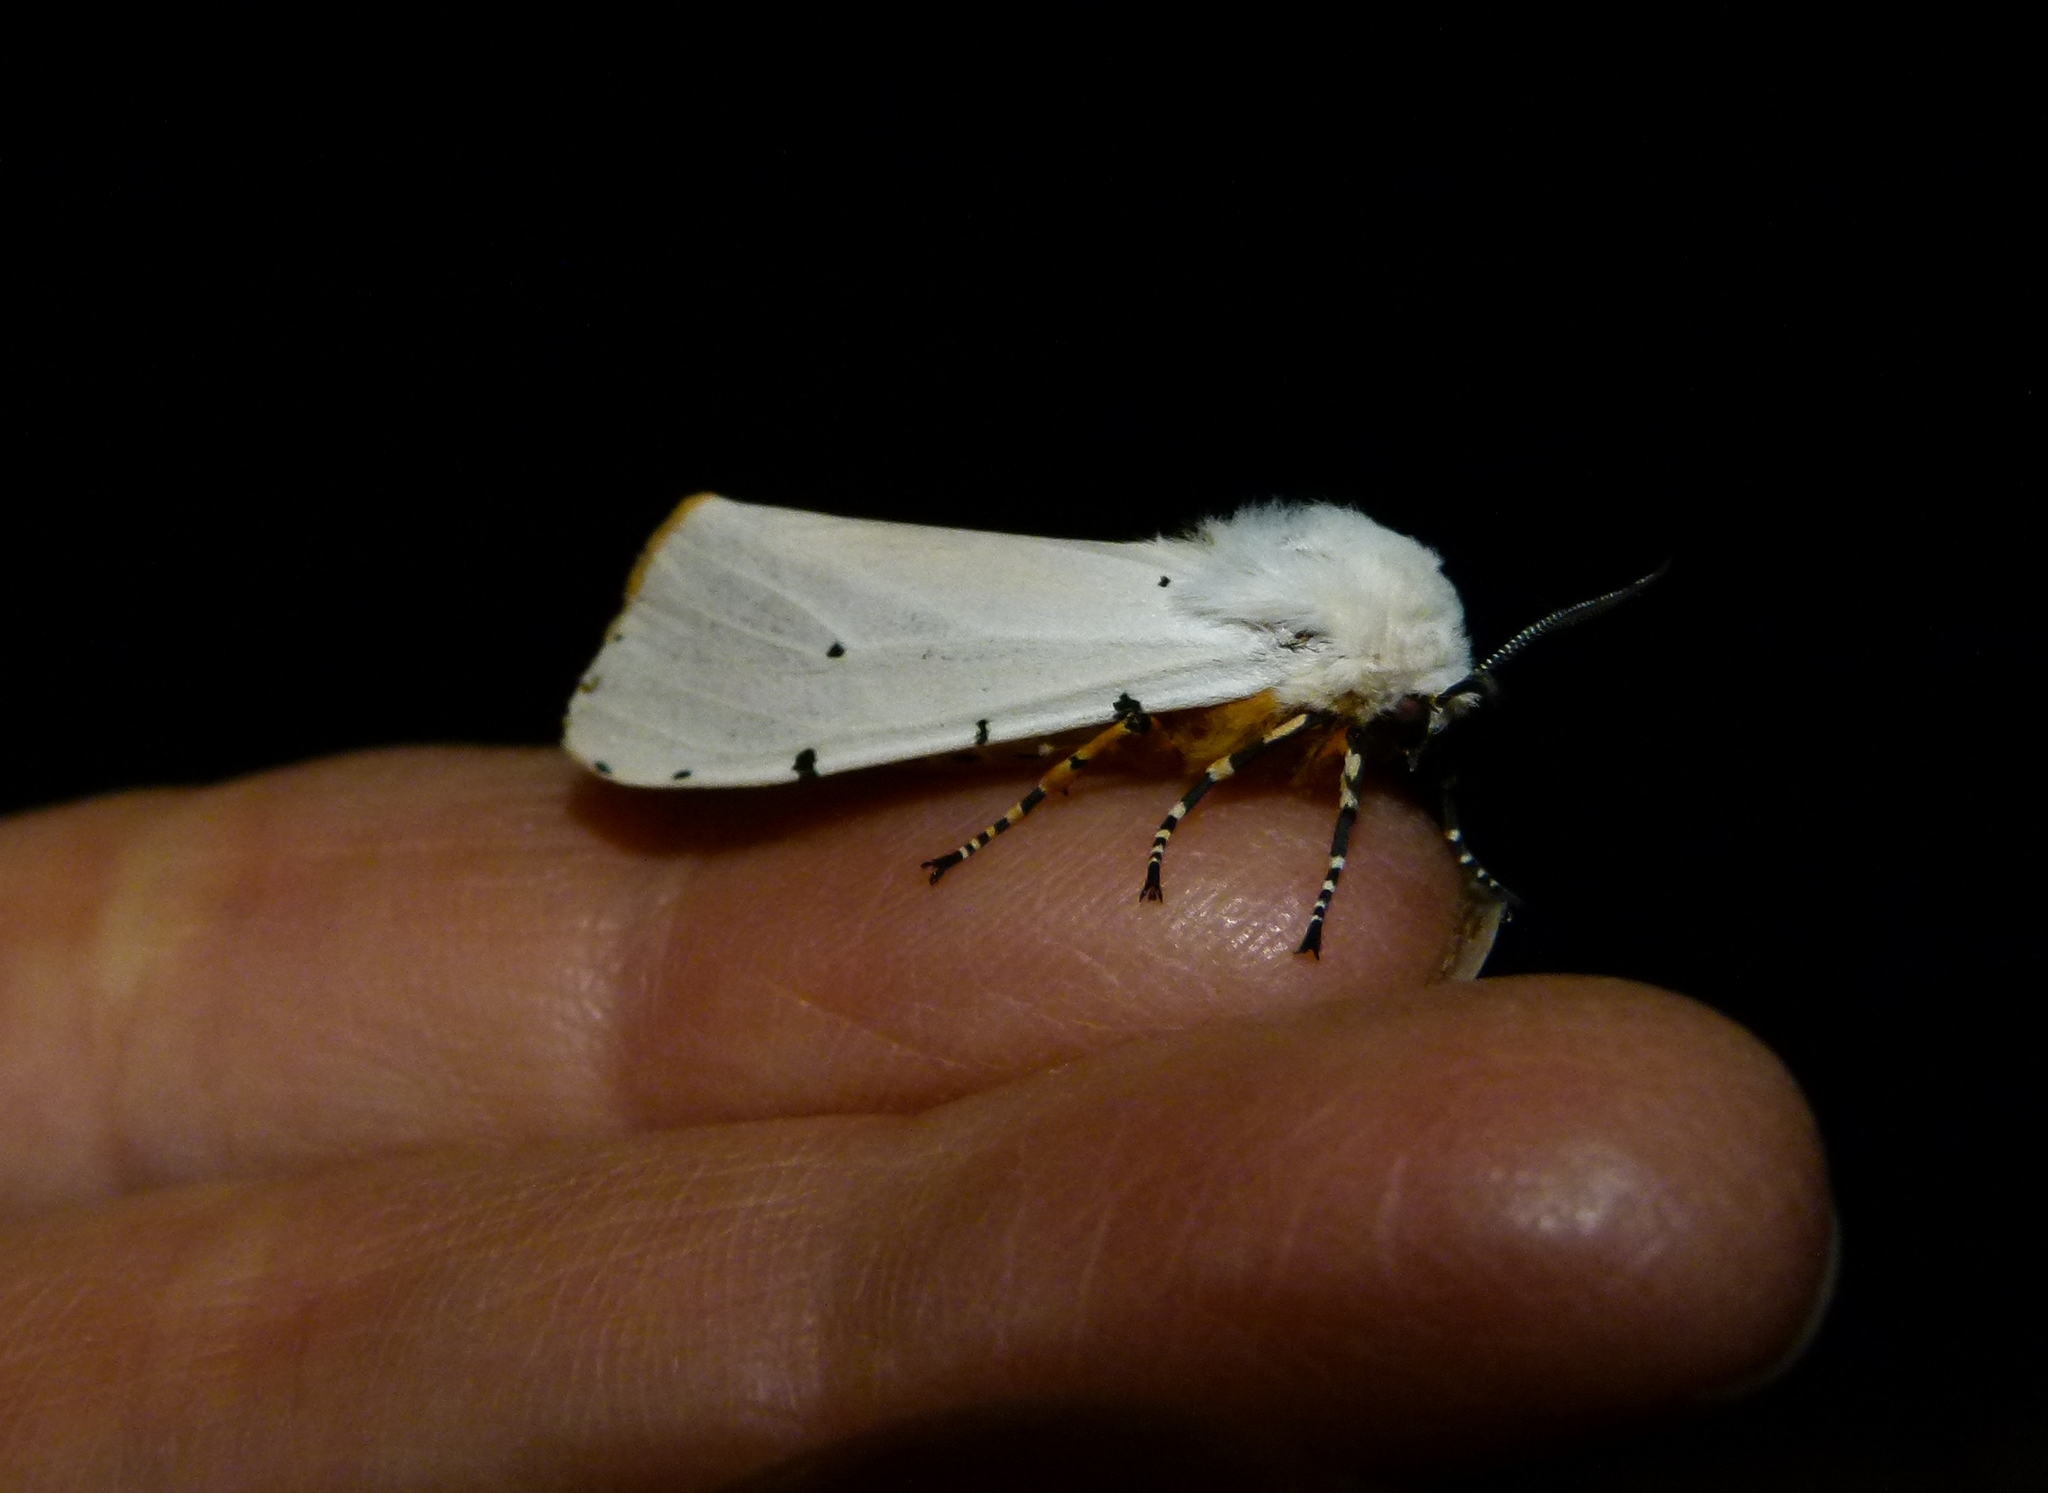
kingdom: Animalia
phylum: Arthropoda
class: Insecta
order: Lepidoptera
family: Erebidae
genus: Estigmene
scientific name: Estigmene acrea
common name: Salt marsh moth
